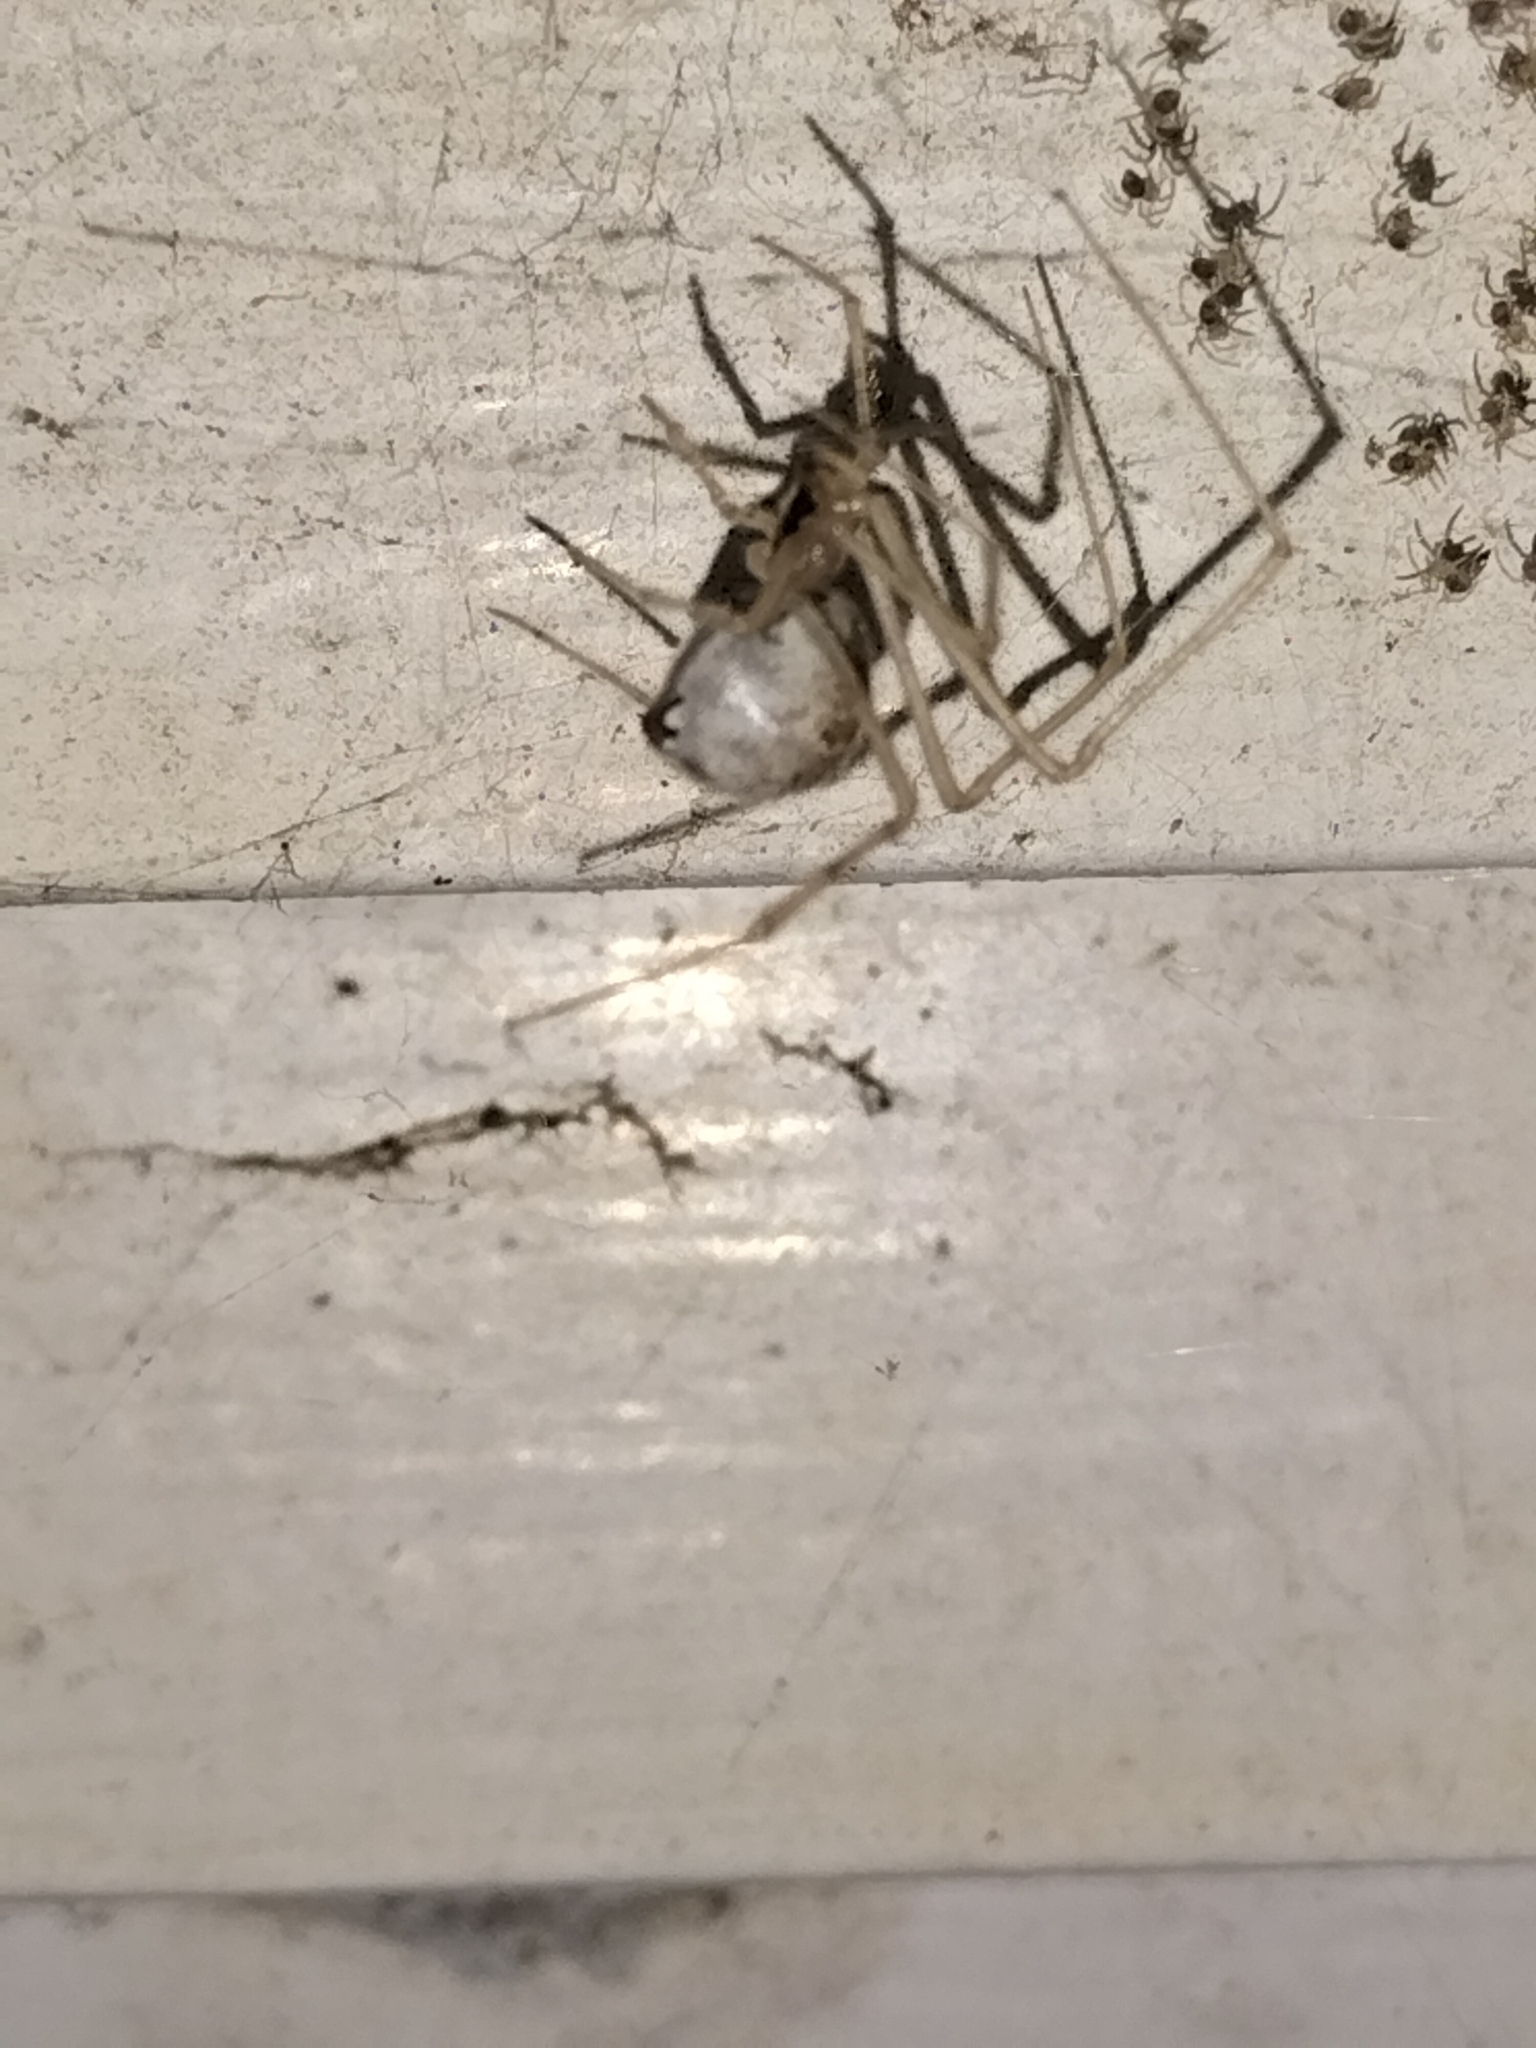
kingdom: Animalia
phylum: Arthropoda
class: Arachnida
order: Araneae
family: Theridiidae
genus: Cryptachaea
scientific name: Cryptachaea gigantipes
